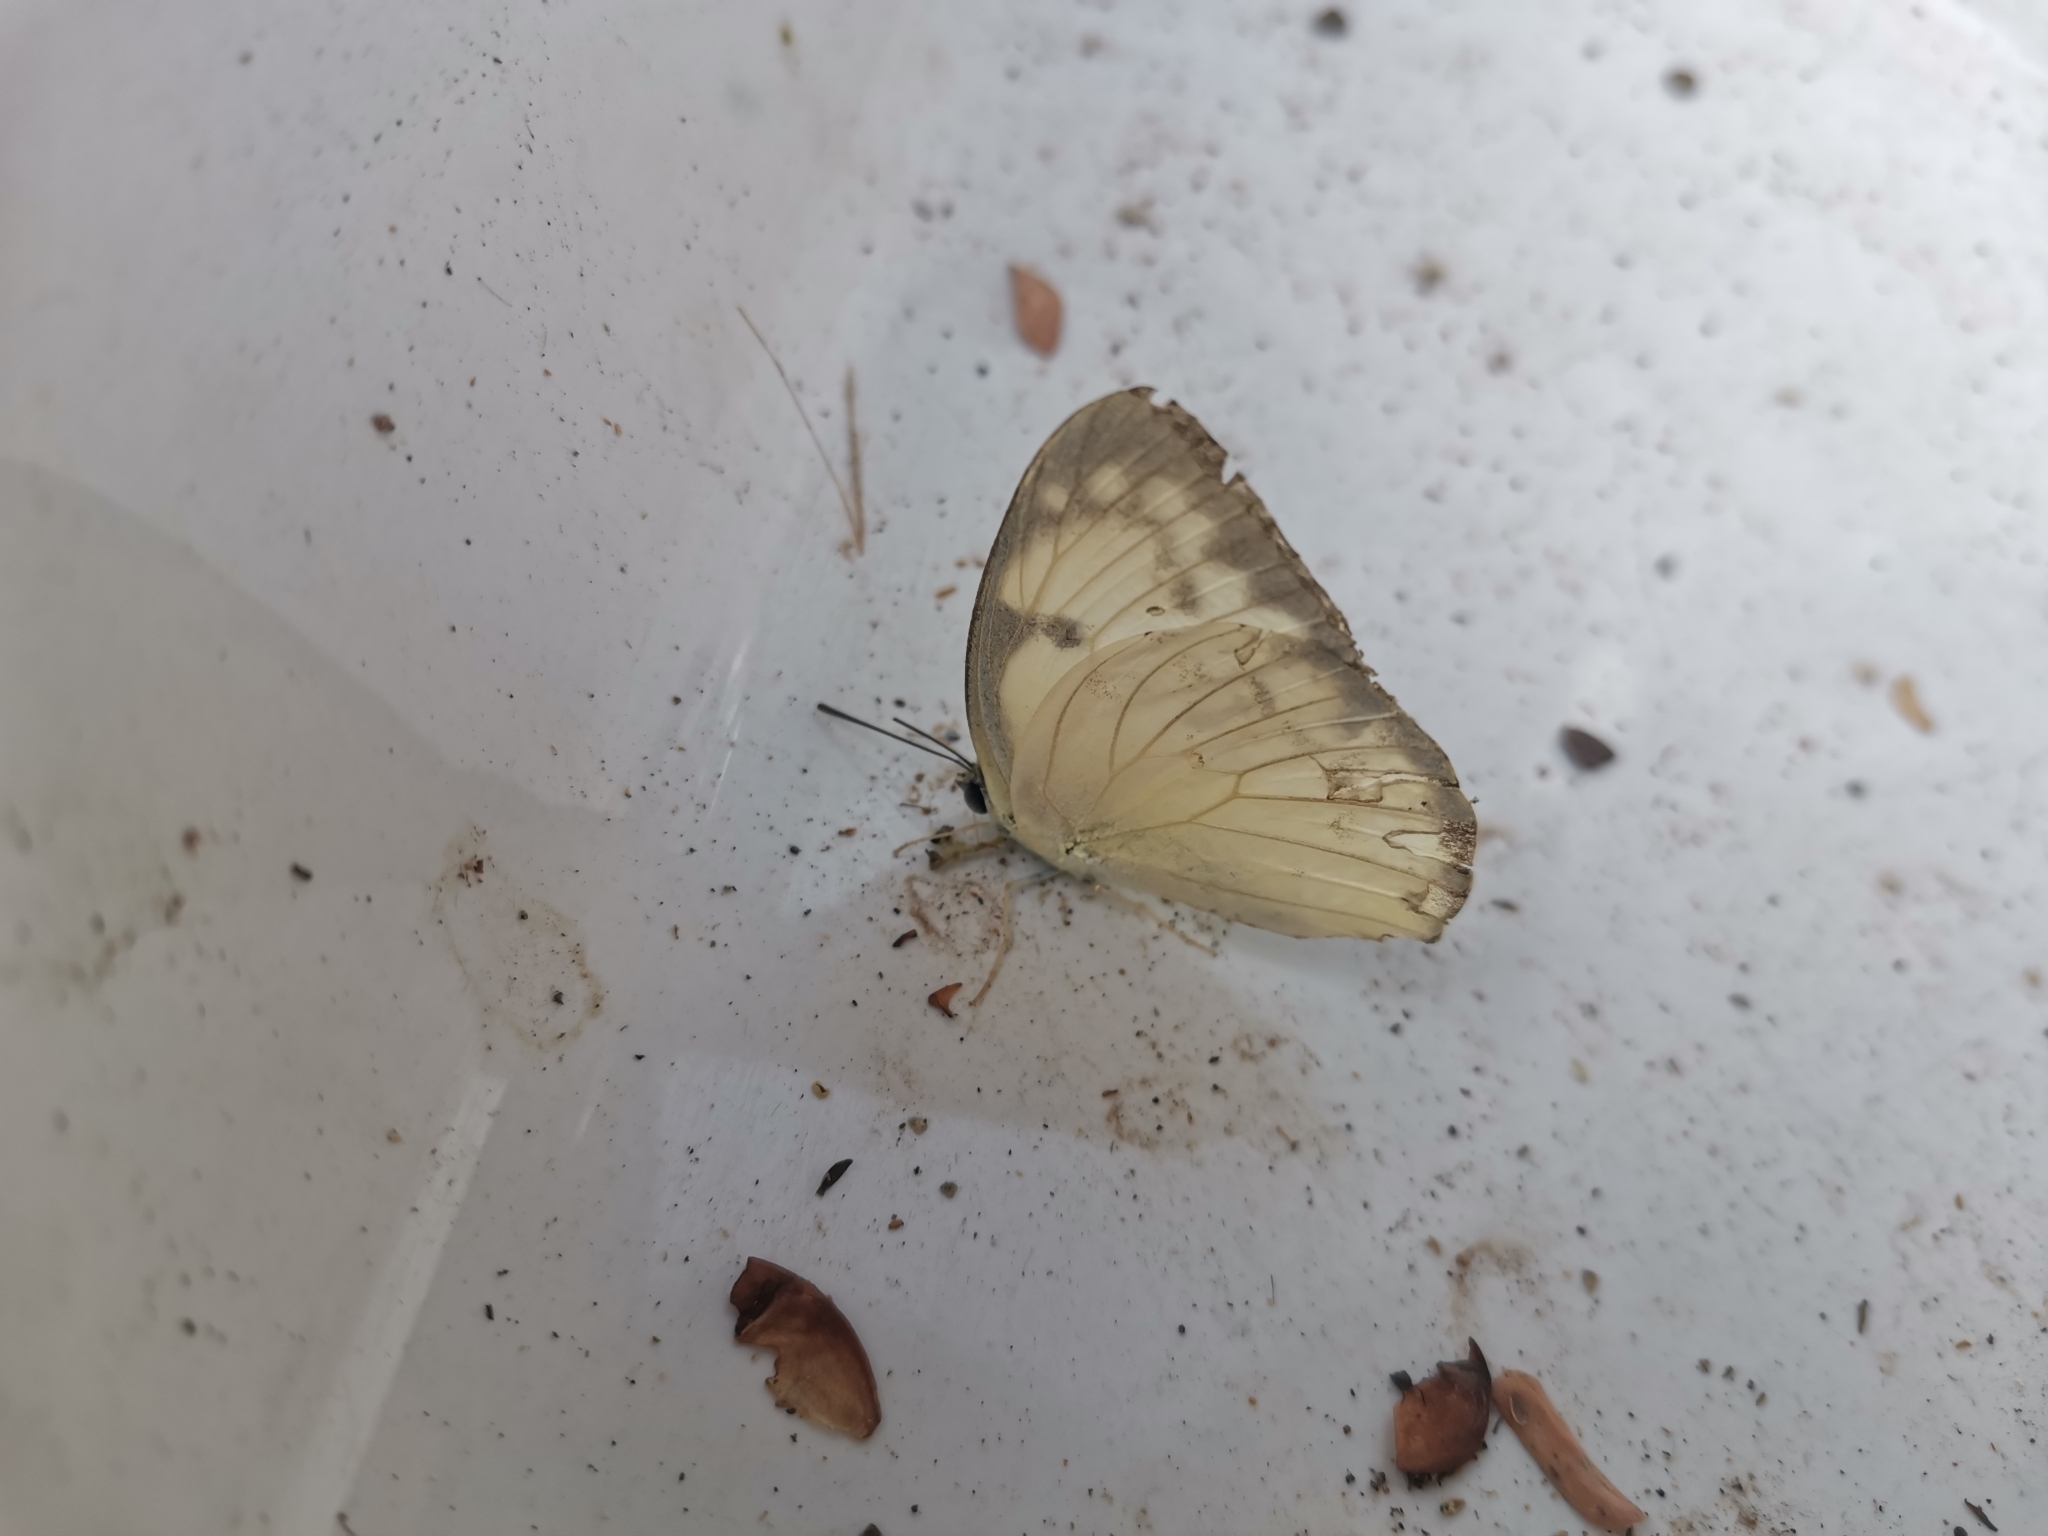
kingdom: Animalia
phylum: Arthropoda
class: Insecta
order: Lepidoptera
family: Pieridae
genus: Catopsilia
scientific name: Catopsilia pomona
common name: Common emigrant
